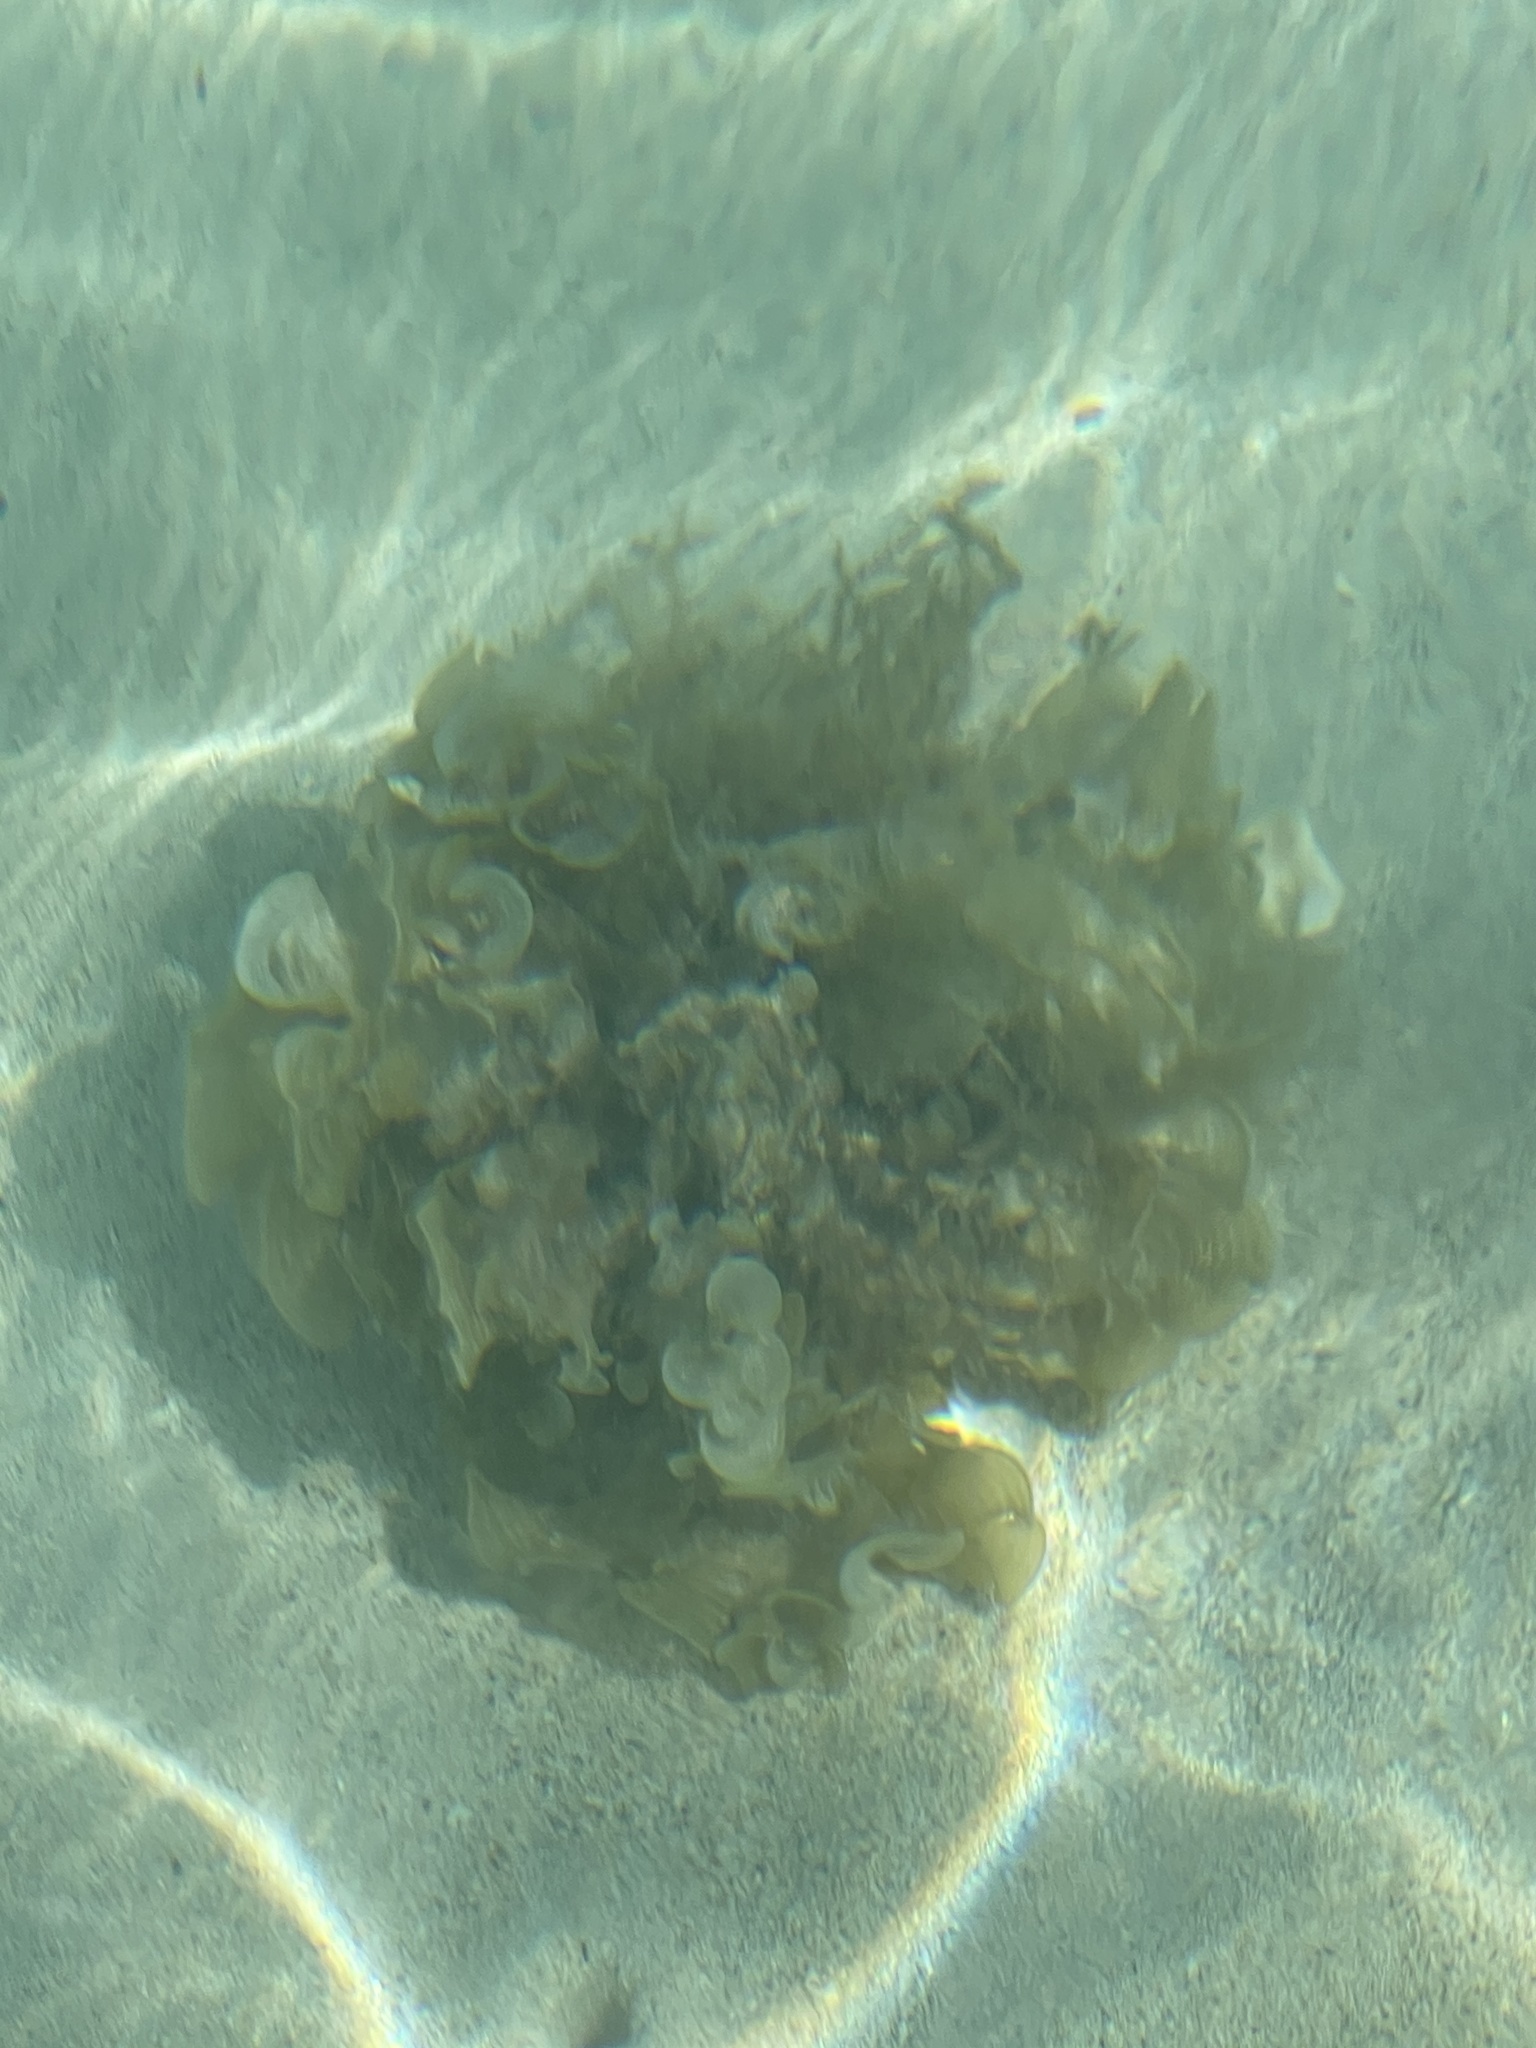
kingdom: Chromista
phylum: Ochrophyta
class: Phaeophyceae
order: Dictyotales
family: Dictyotaceae
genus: Padina
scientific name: Padina sanctae-crucis
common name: White scroll algae
